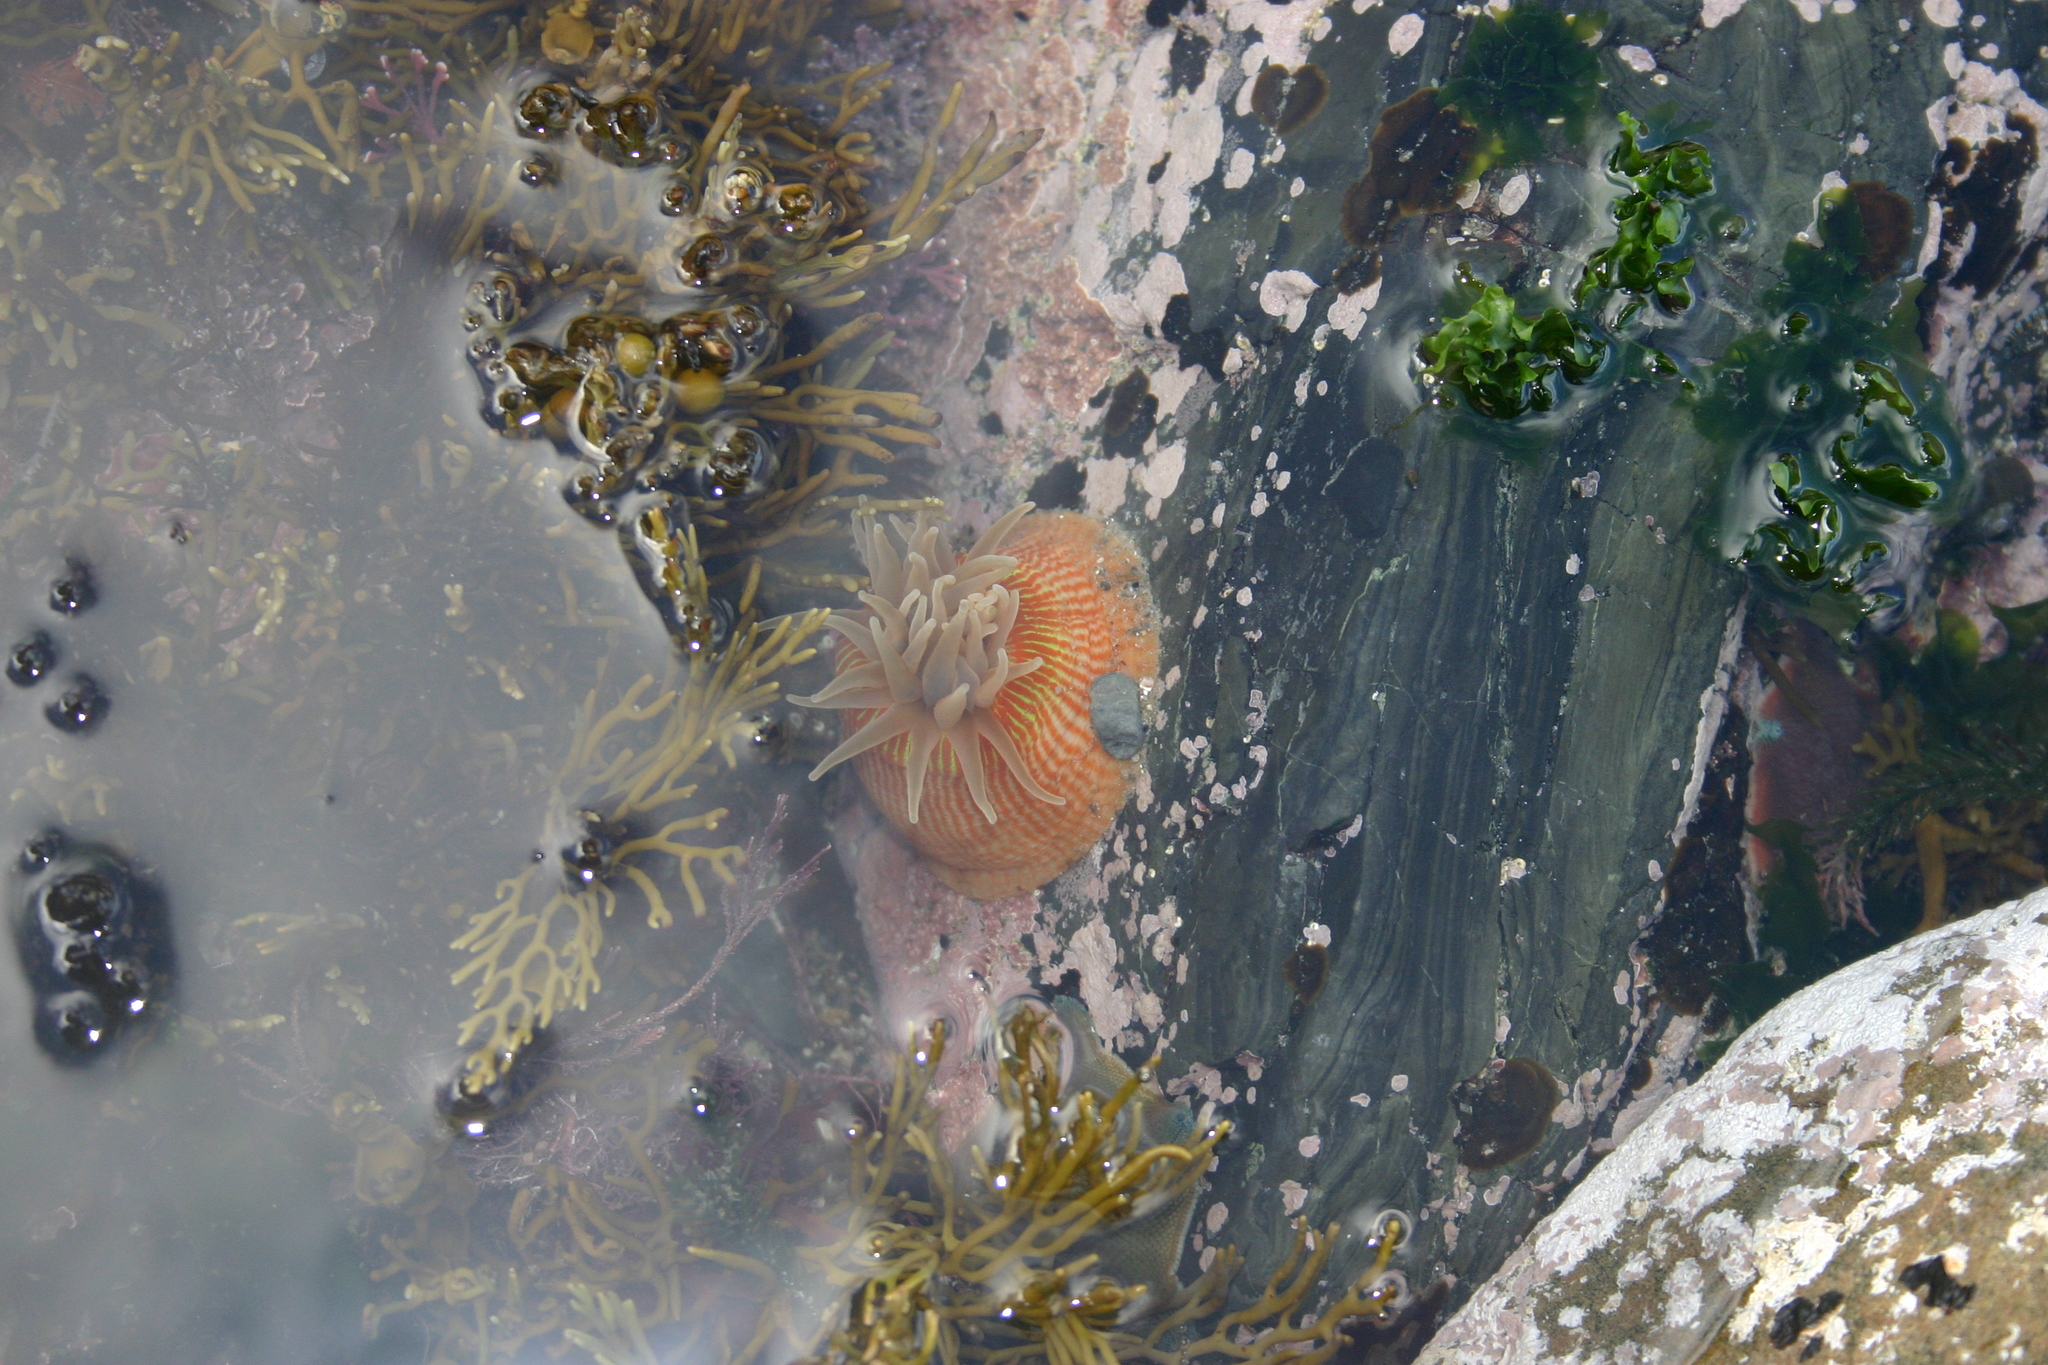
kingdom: Animalia
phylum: Cnidaria
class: Anthozoa
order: Actiniaria
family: Actiniidae
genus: Epiactis
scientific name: Epiactis thompsoni
